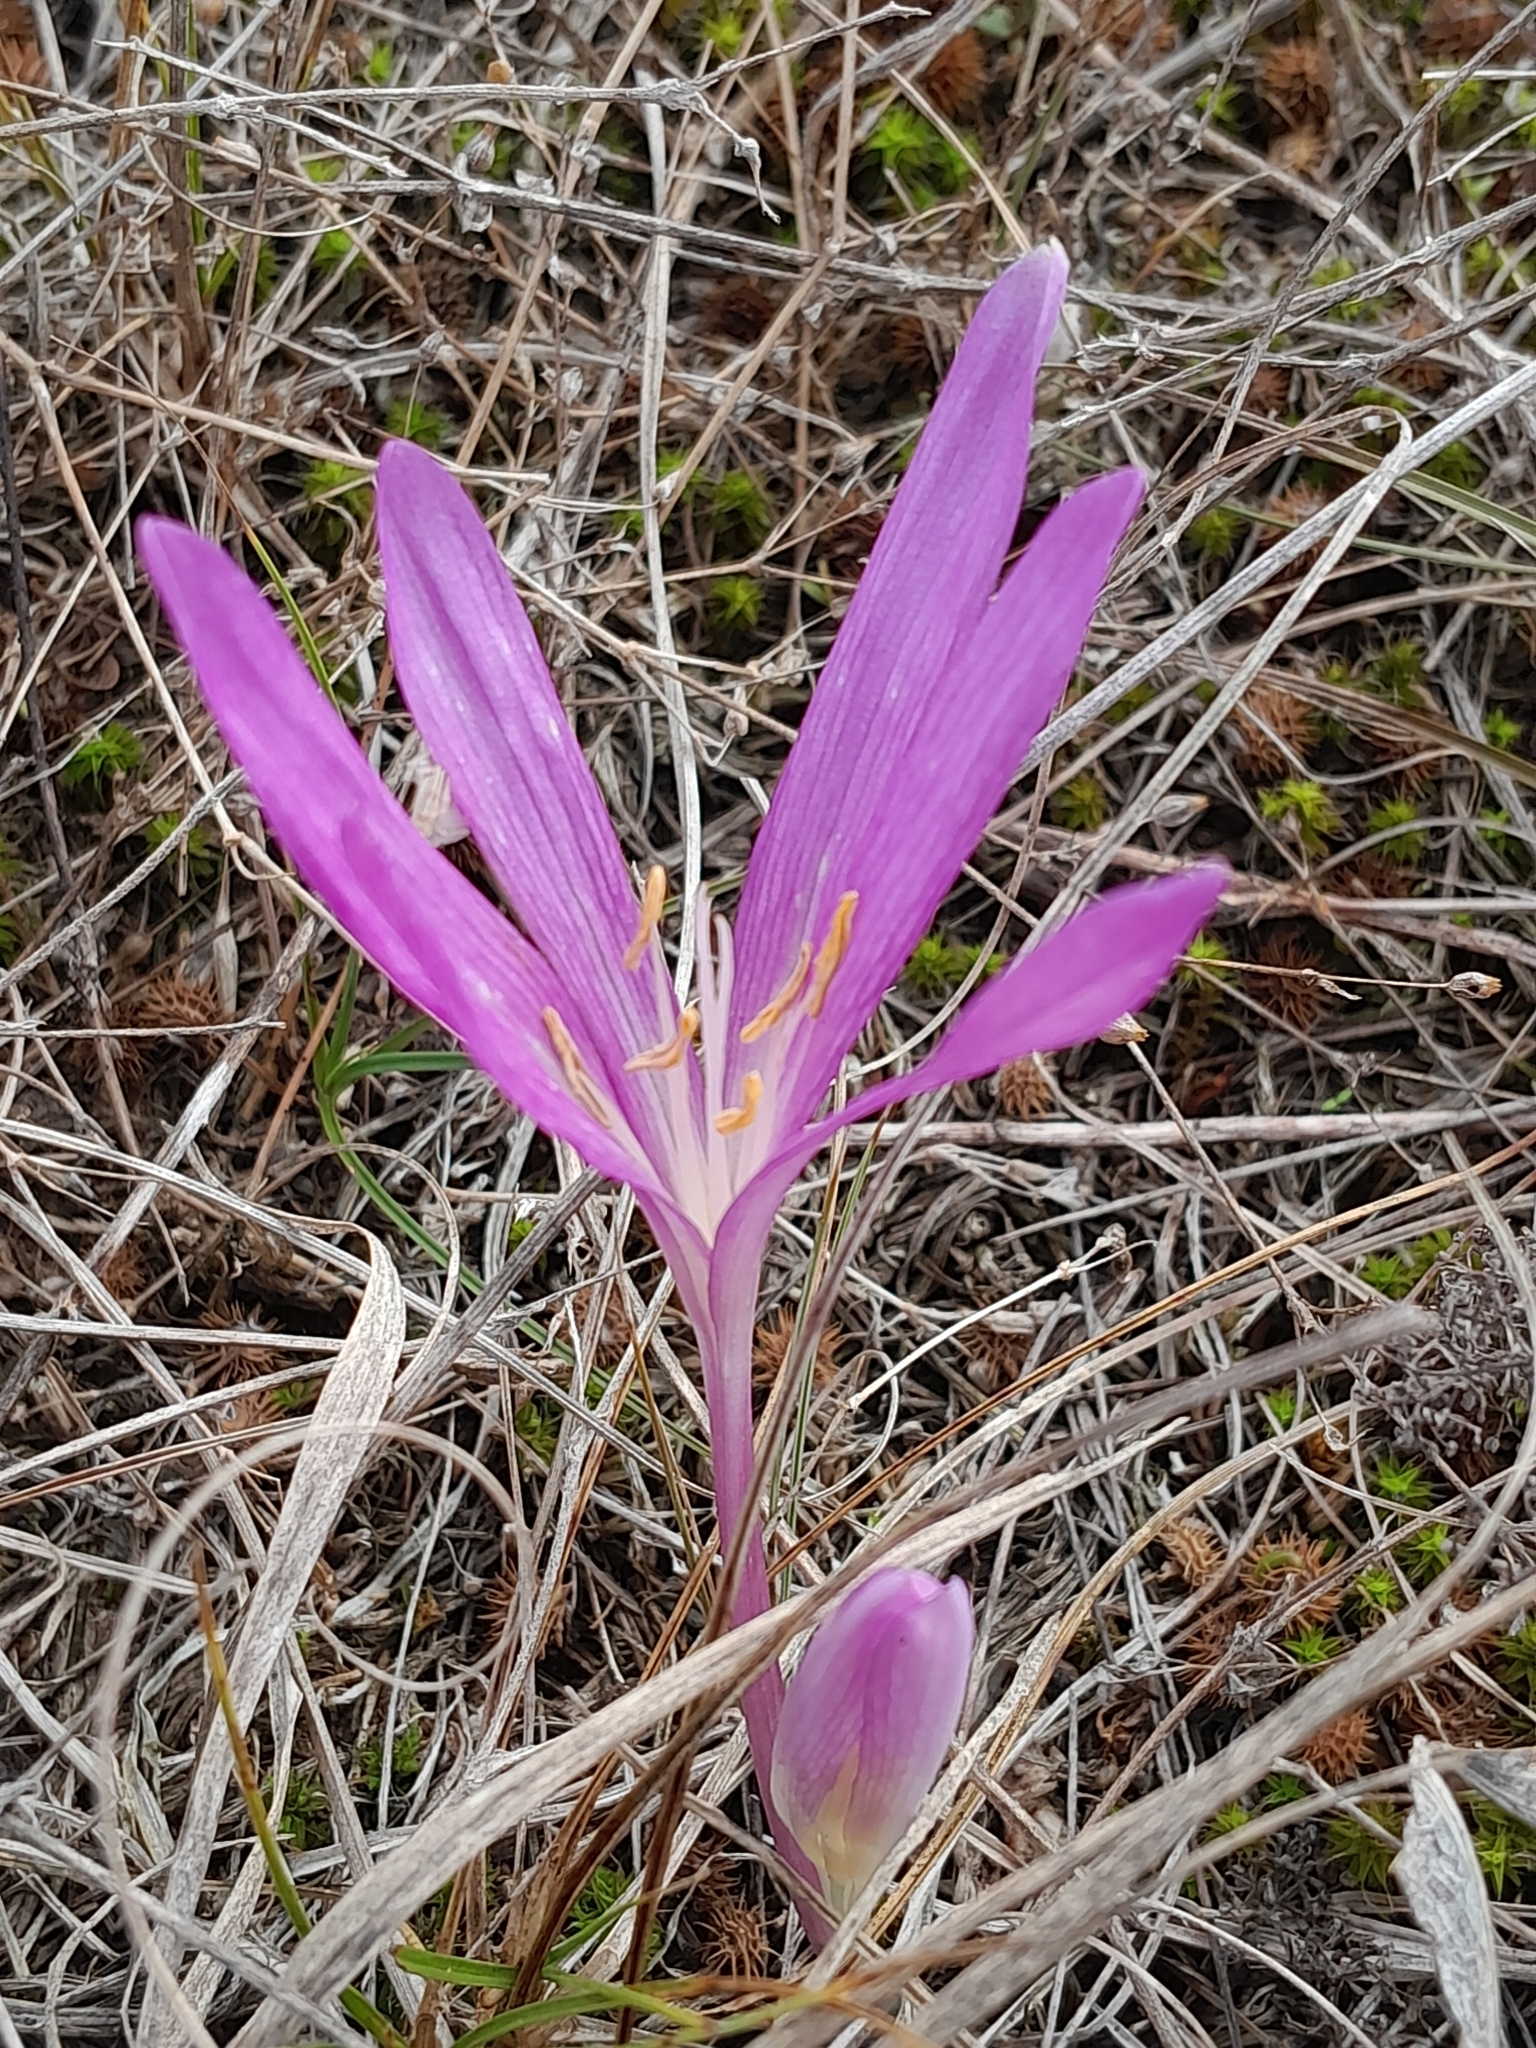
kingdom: Plantae
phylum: Tracheophyta
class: Liliopsida
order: Liliales
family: Colchicaceae
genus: Colchicum
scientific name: Colchicum arenarium
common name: Sand saffron
